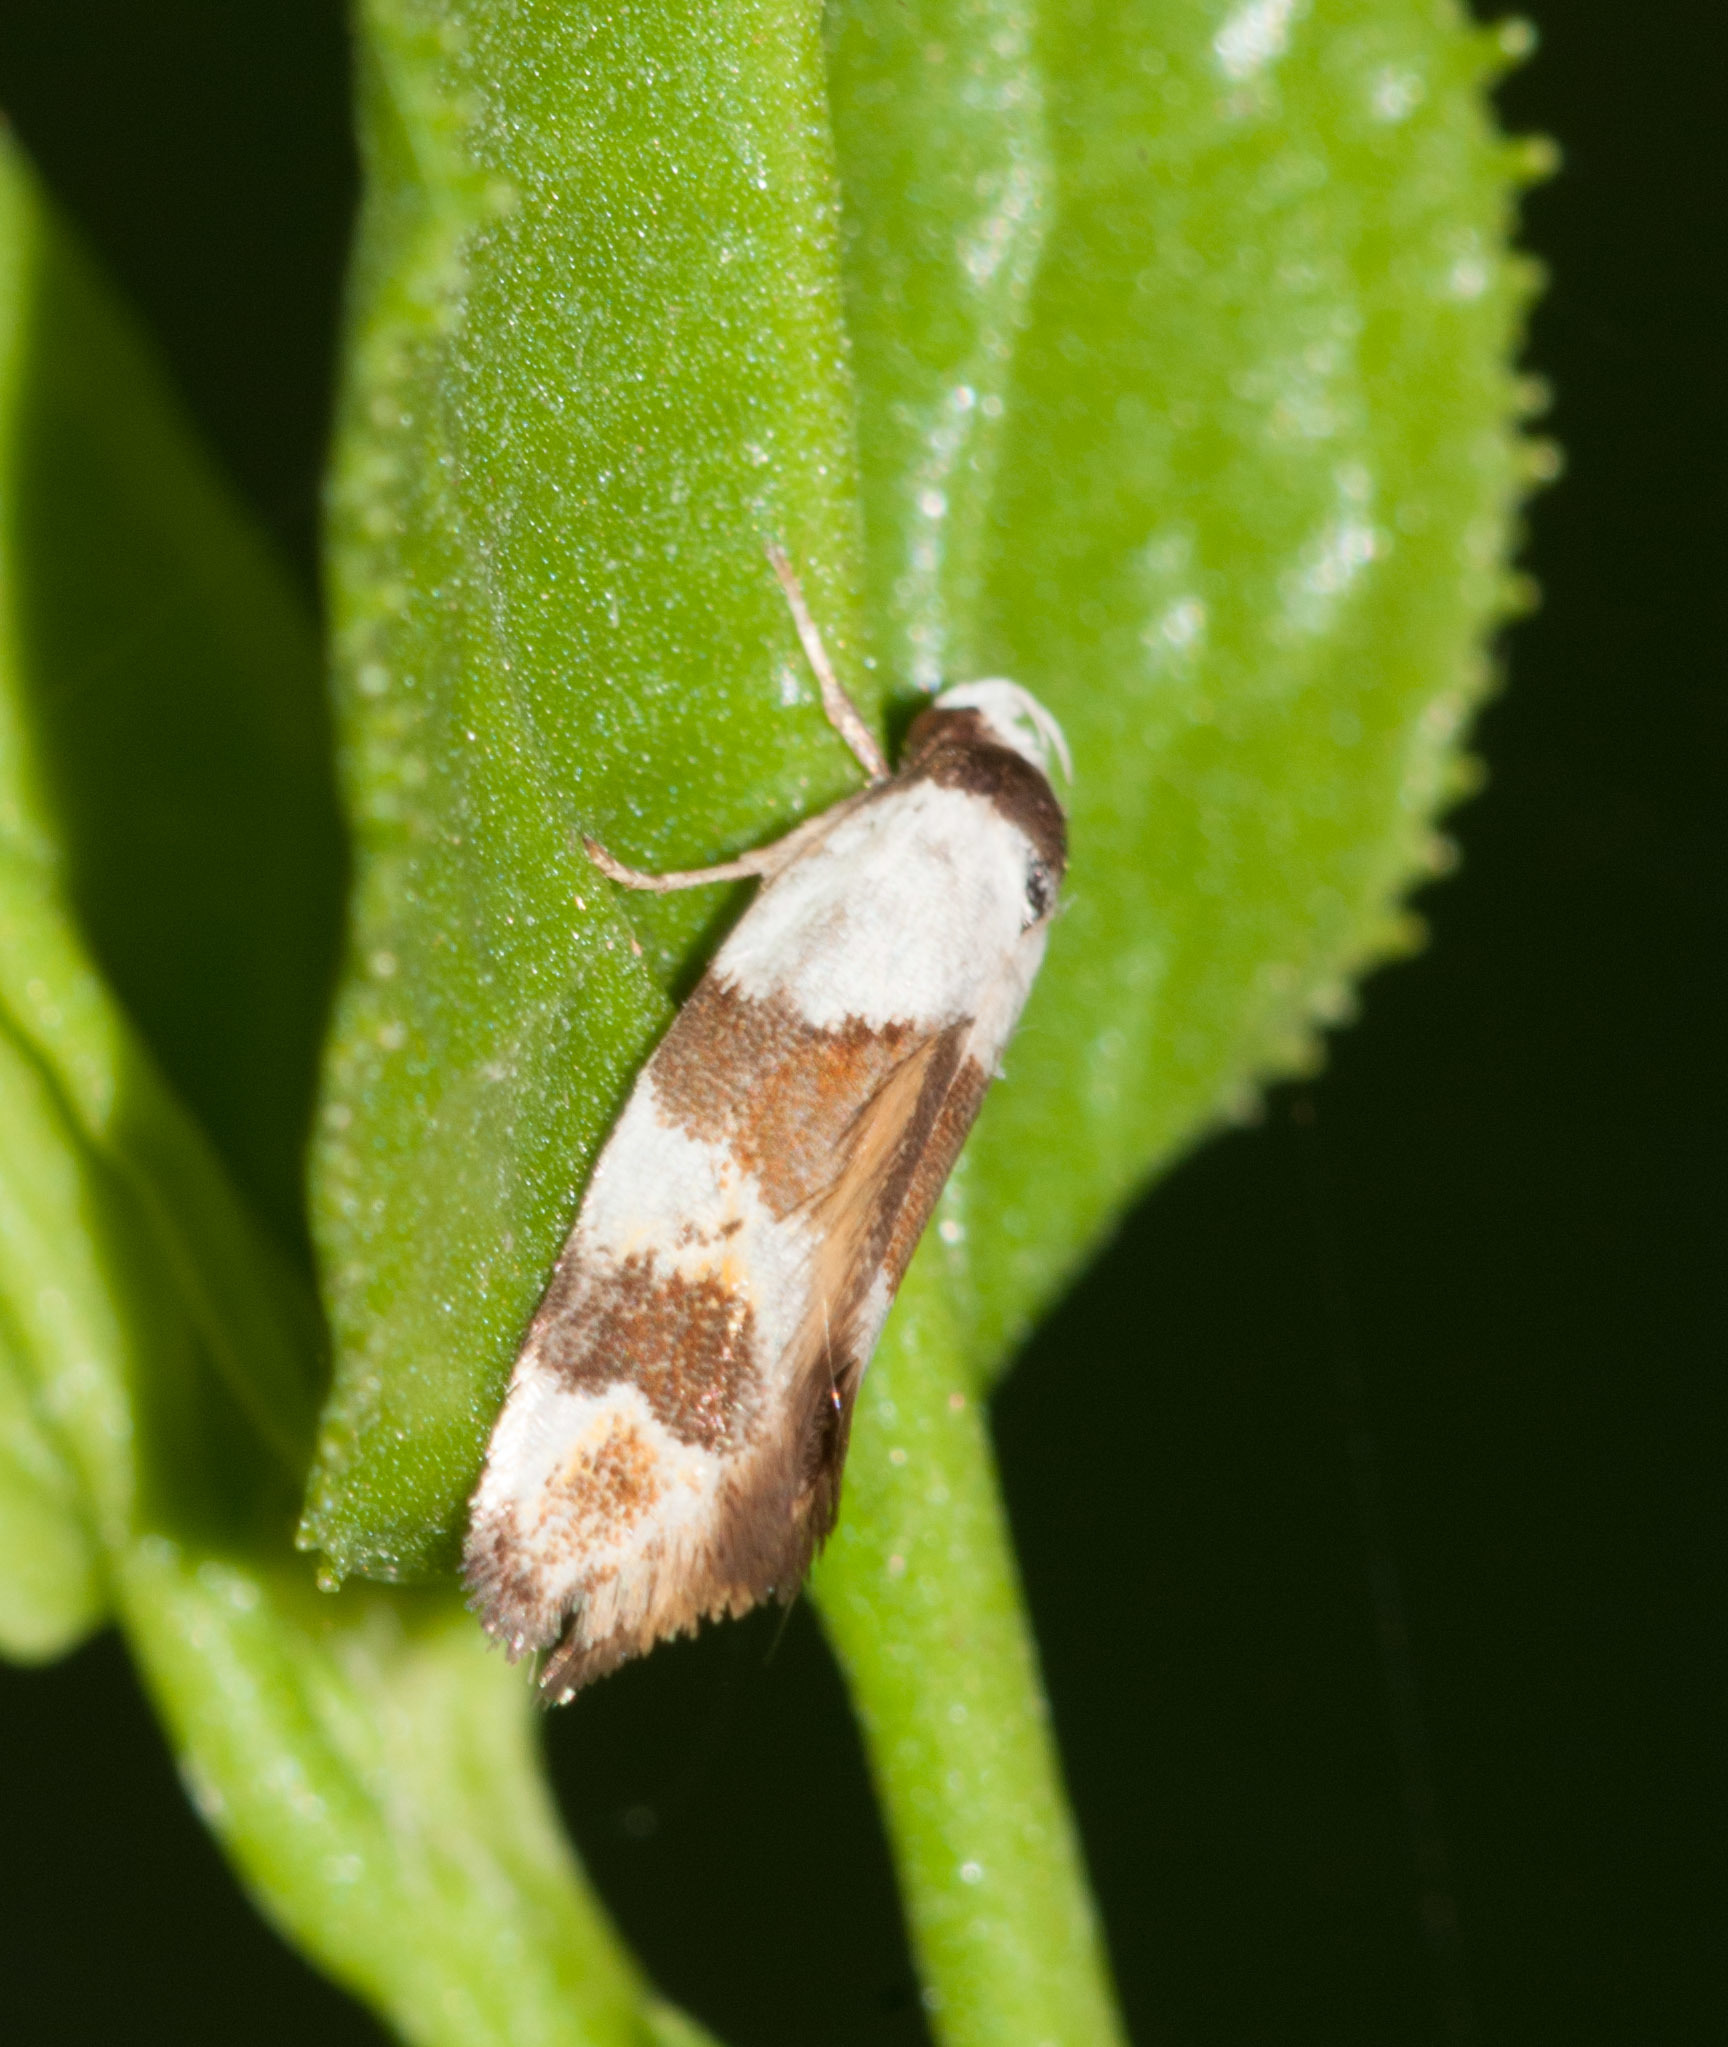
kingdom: Animalia
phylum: Arthropoda
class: Insecta
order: Lepidoptera
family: Oecophoridae
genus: Euphiltra
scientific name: Euphiltra eroticella
